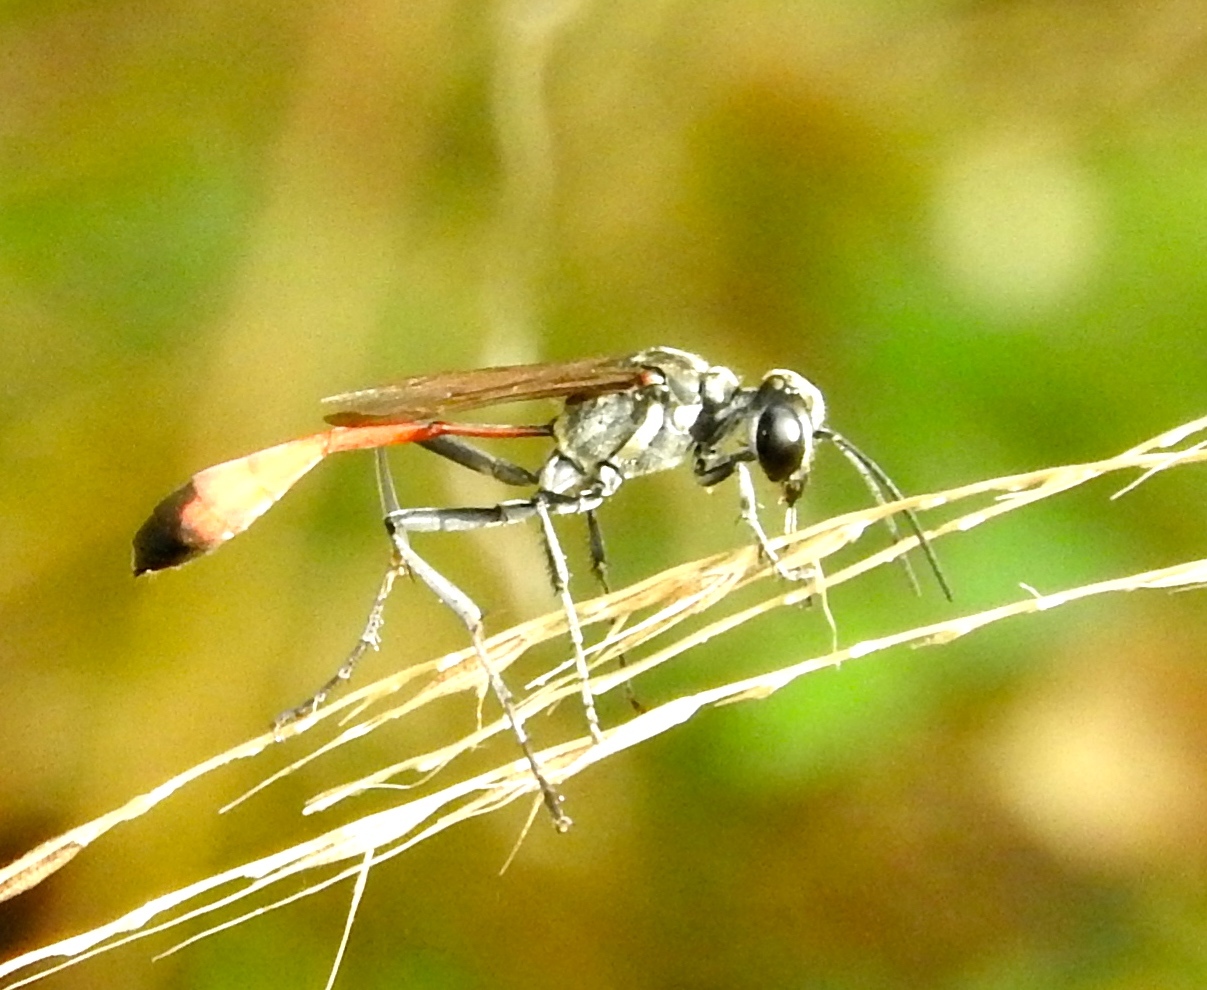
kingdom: Animalia
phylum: Arthropoda
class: Insecta
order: Hymenoptera
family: Sphecidae
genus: Ammophila
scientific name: Ammophila
